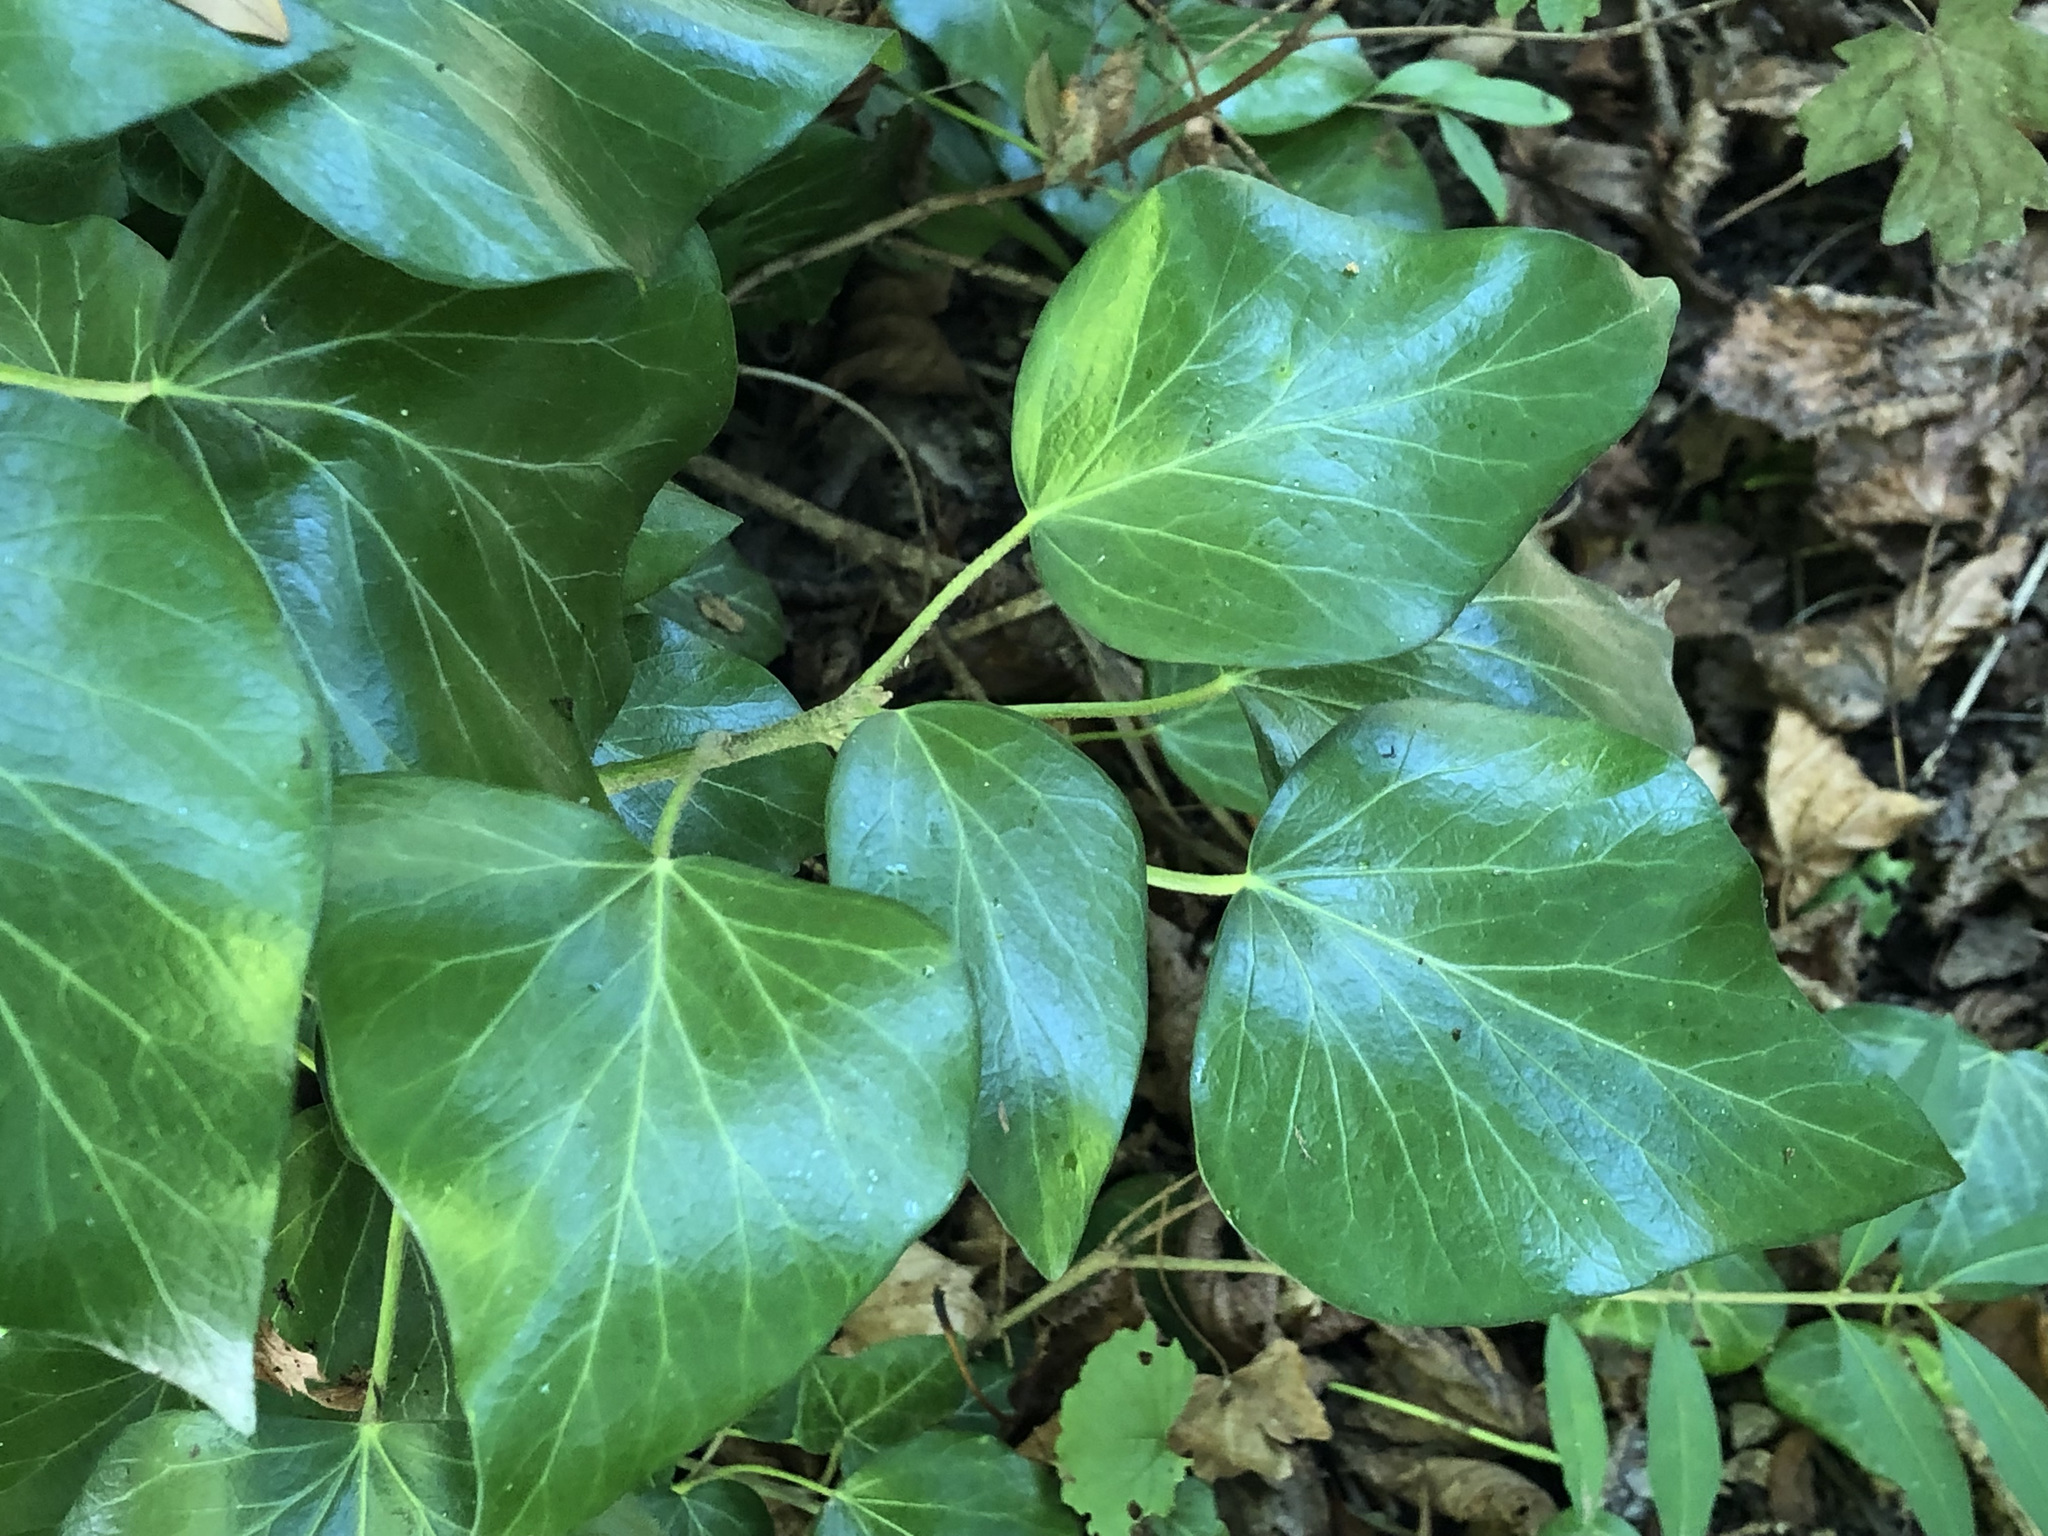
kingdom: Plantae
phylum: Tracheophyta
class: Magnoliopsida
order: Apiales
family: Araliaceae
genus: Hedera
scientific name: Hedera helix
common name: Ivy
